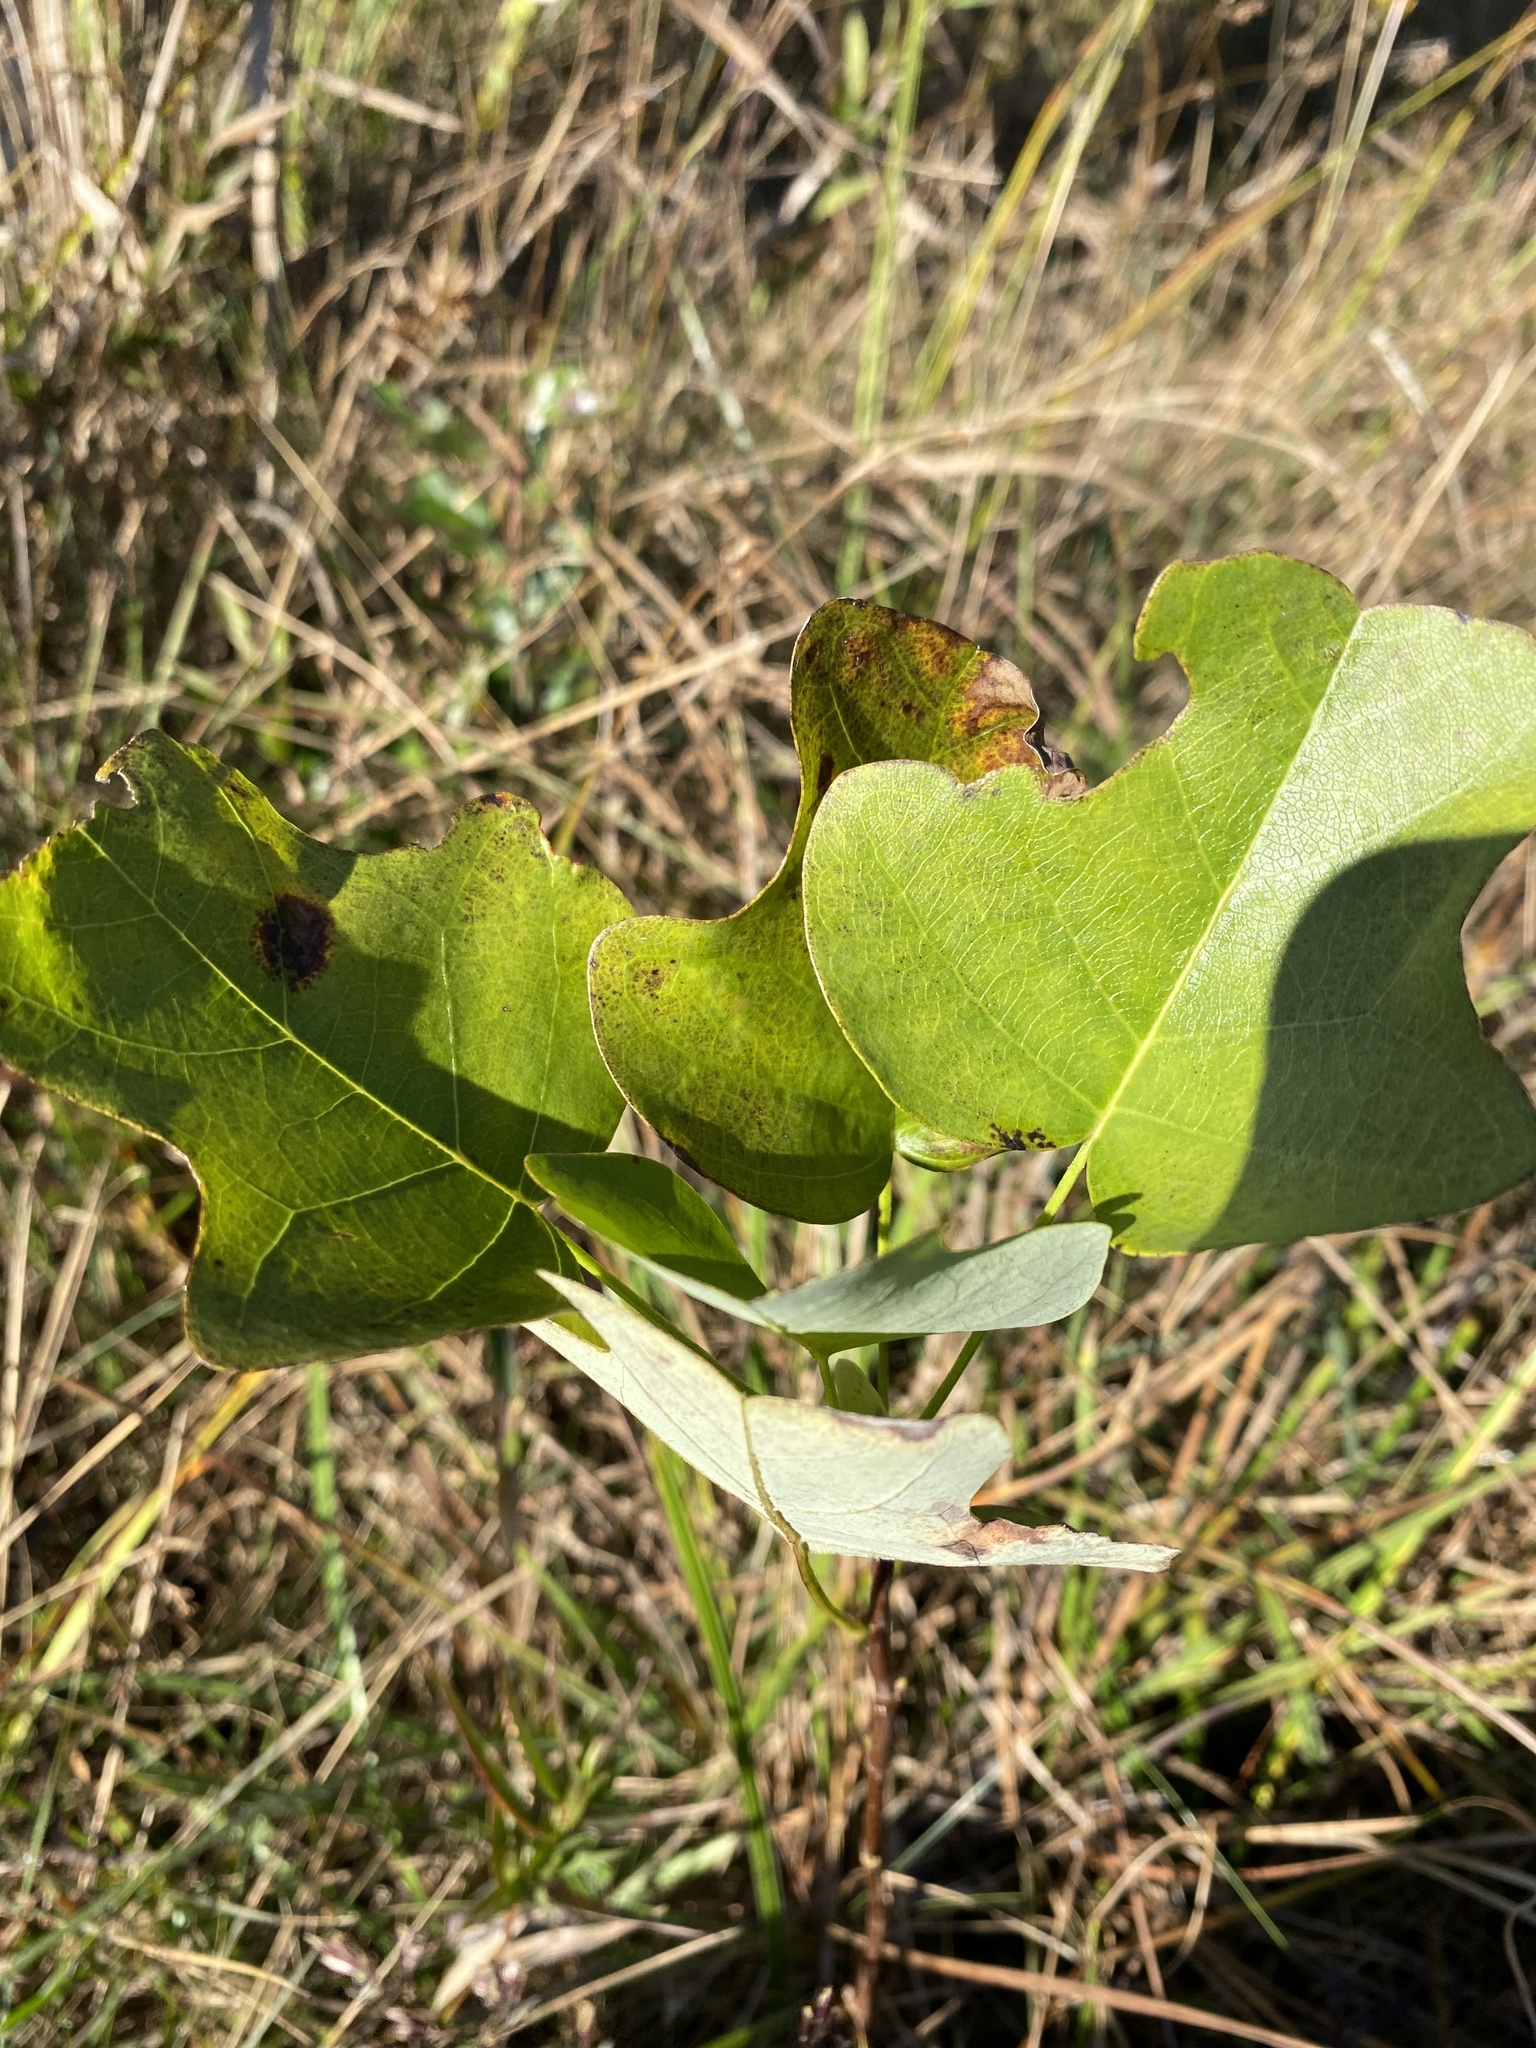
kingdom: Plantae
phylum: Tracheophyta
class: Magnoliopsida
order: Magnoliales
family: Magnoliaceae
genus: Liriodendron
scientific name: Liriodendron tulipifera
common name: Tulip tree
